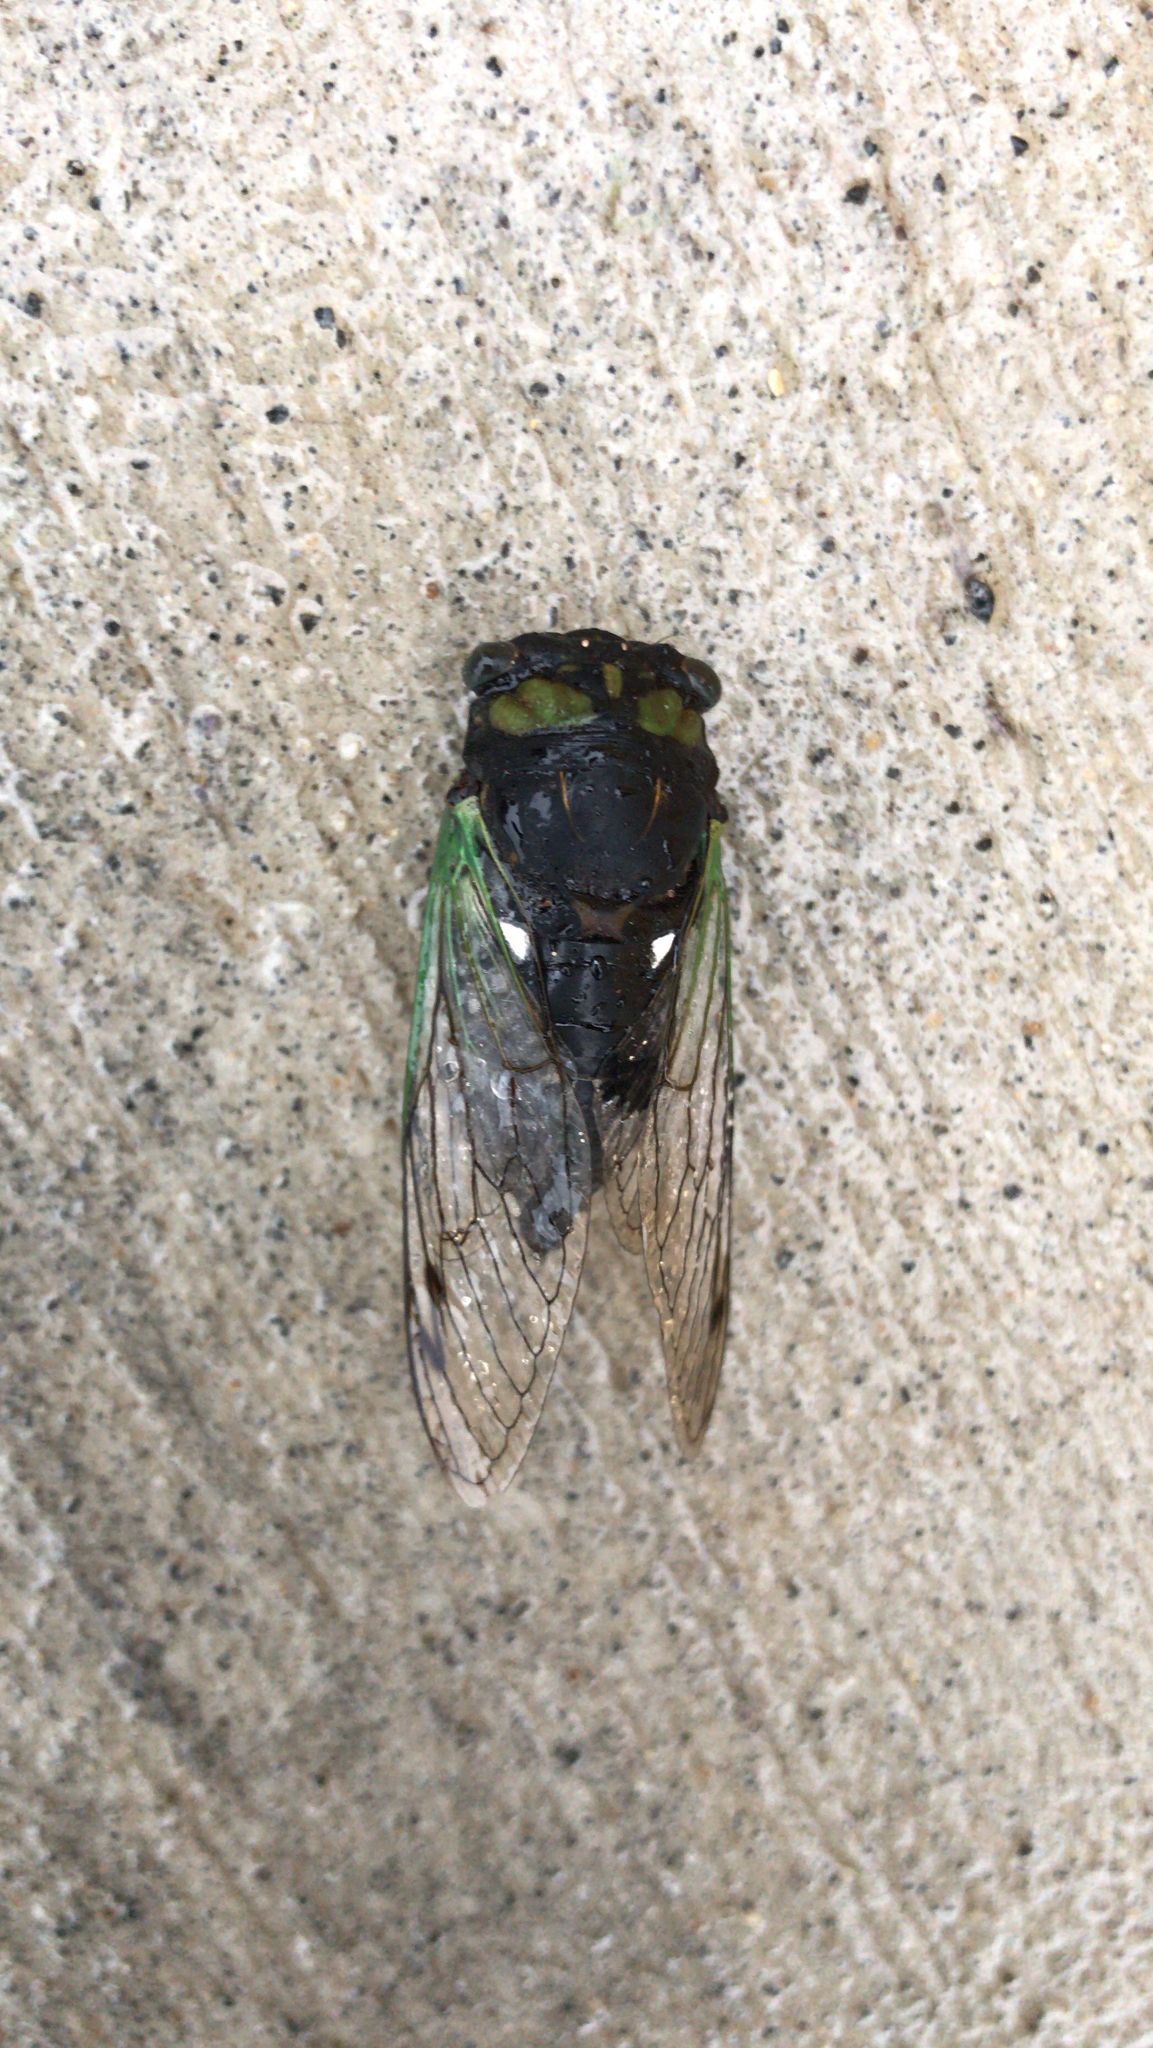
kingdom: Animalia
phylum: Arthropoda
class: Insecta
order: Hemiptera
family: Cicadidae
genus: Neotibicen
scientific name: Neotibicen tibicen
